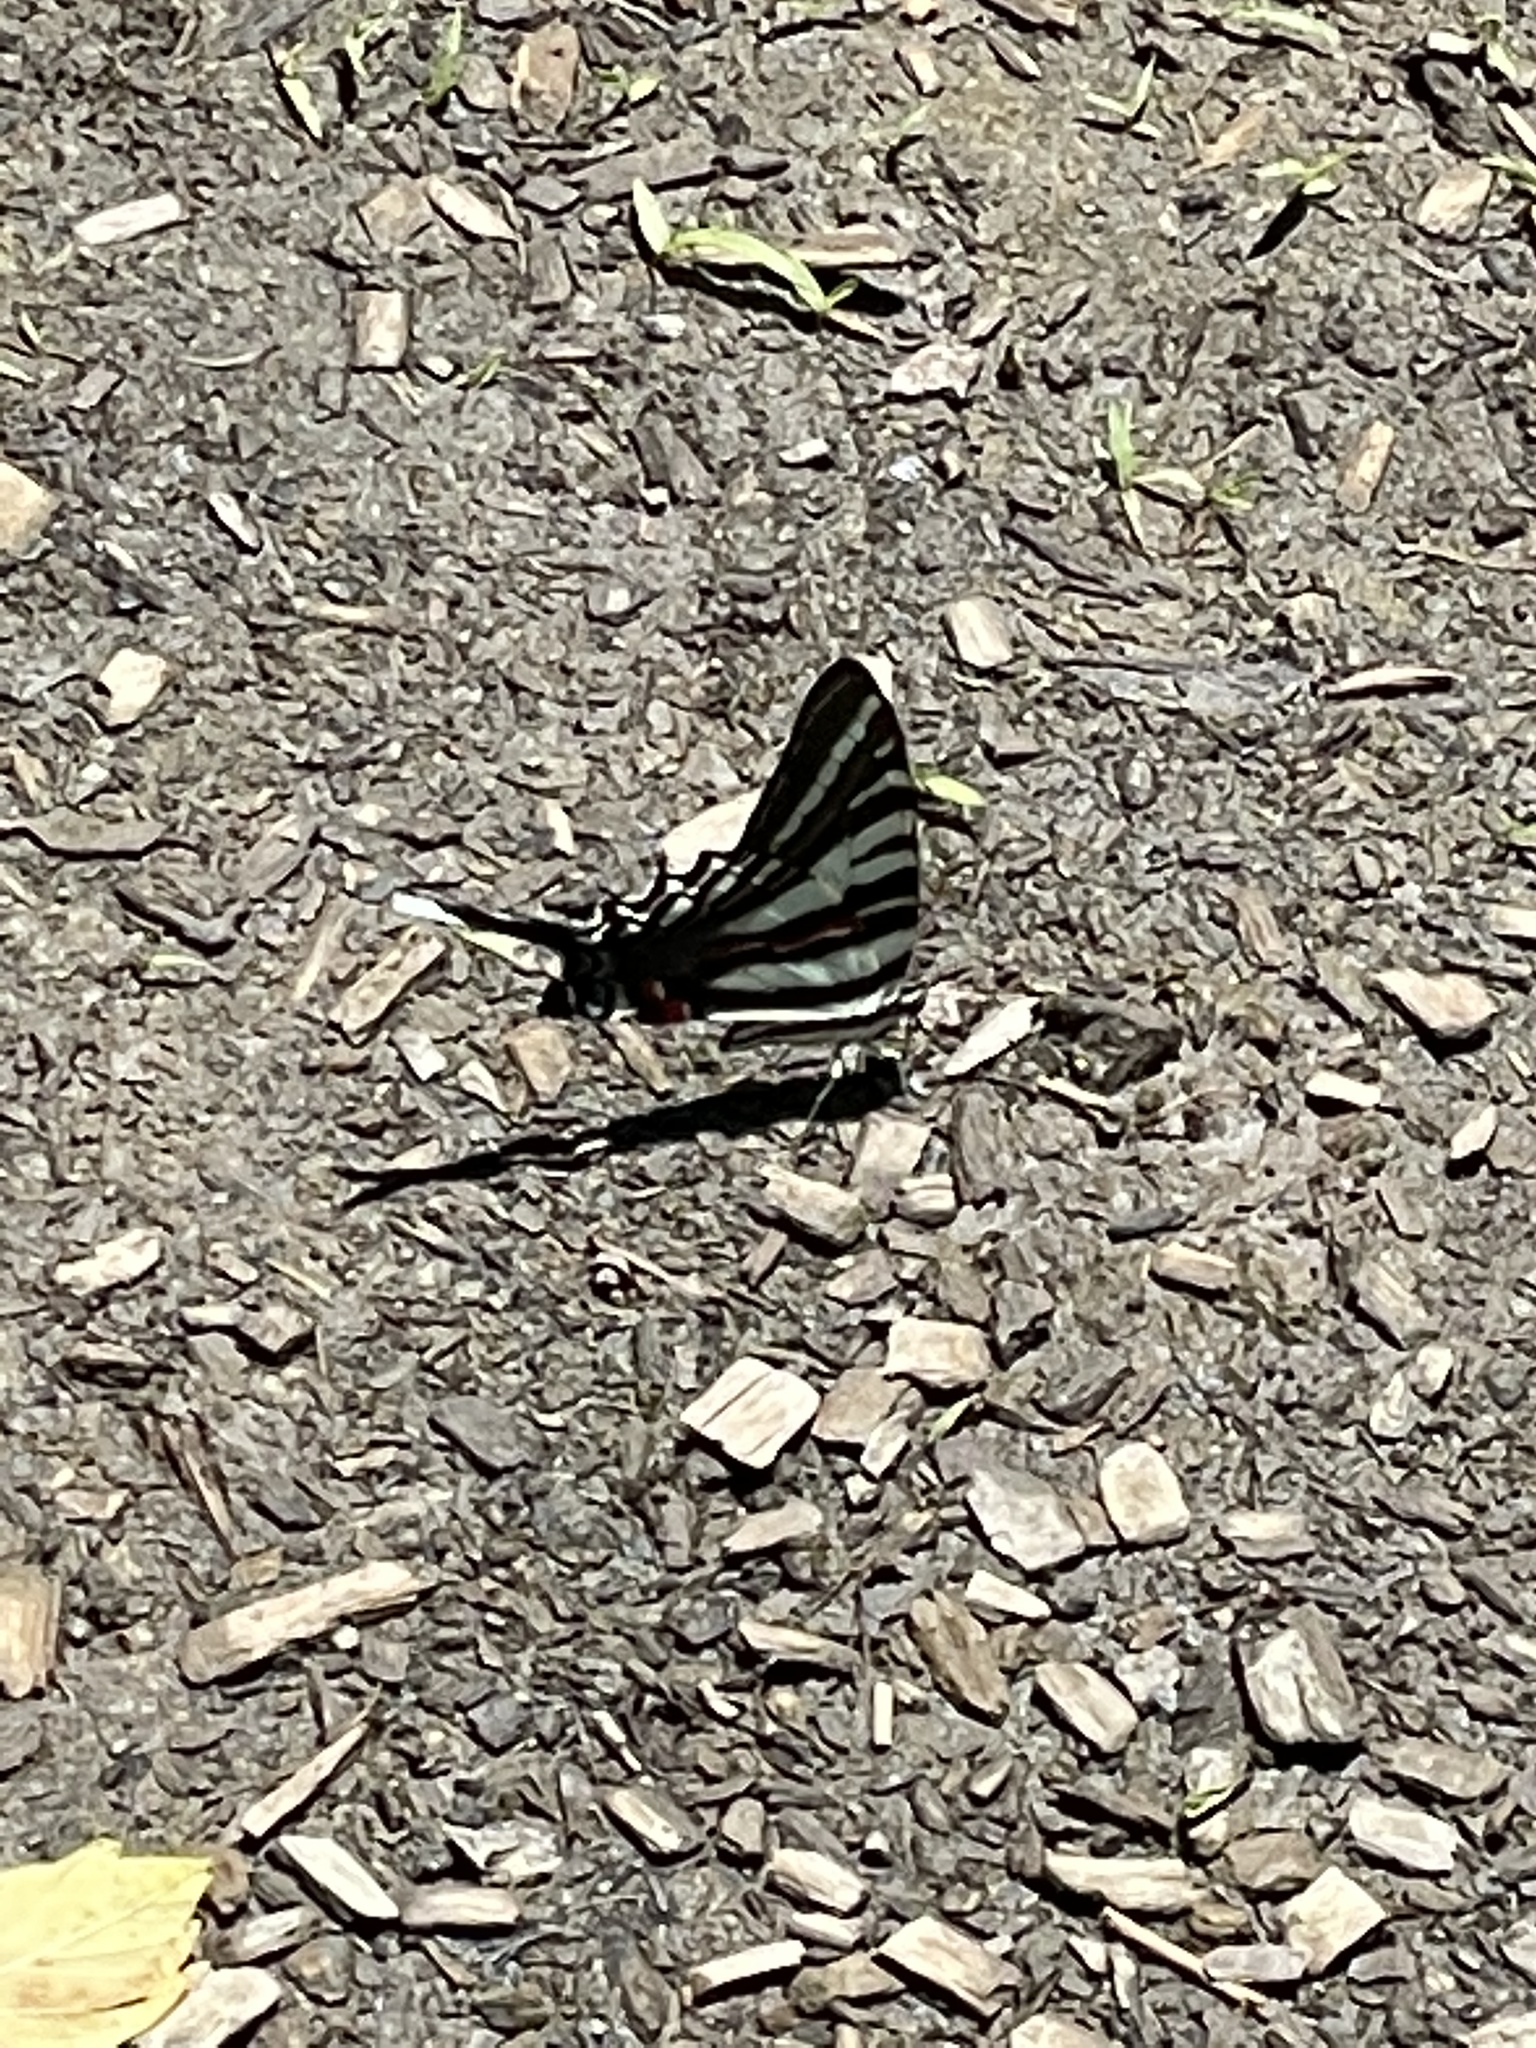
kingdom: Animalia
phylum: Arthropoda
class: Insecta
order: Lepidoptera
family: Papilionidae
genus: Protographium
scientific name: Protographium marcellus
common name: Zebra swallowtail
